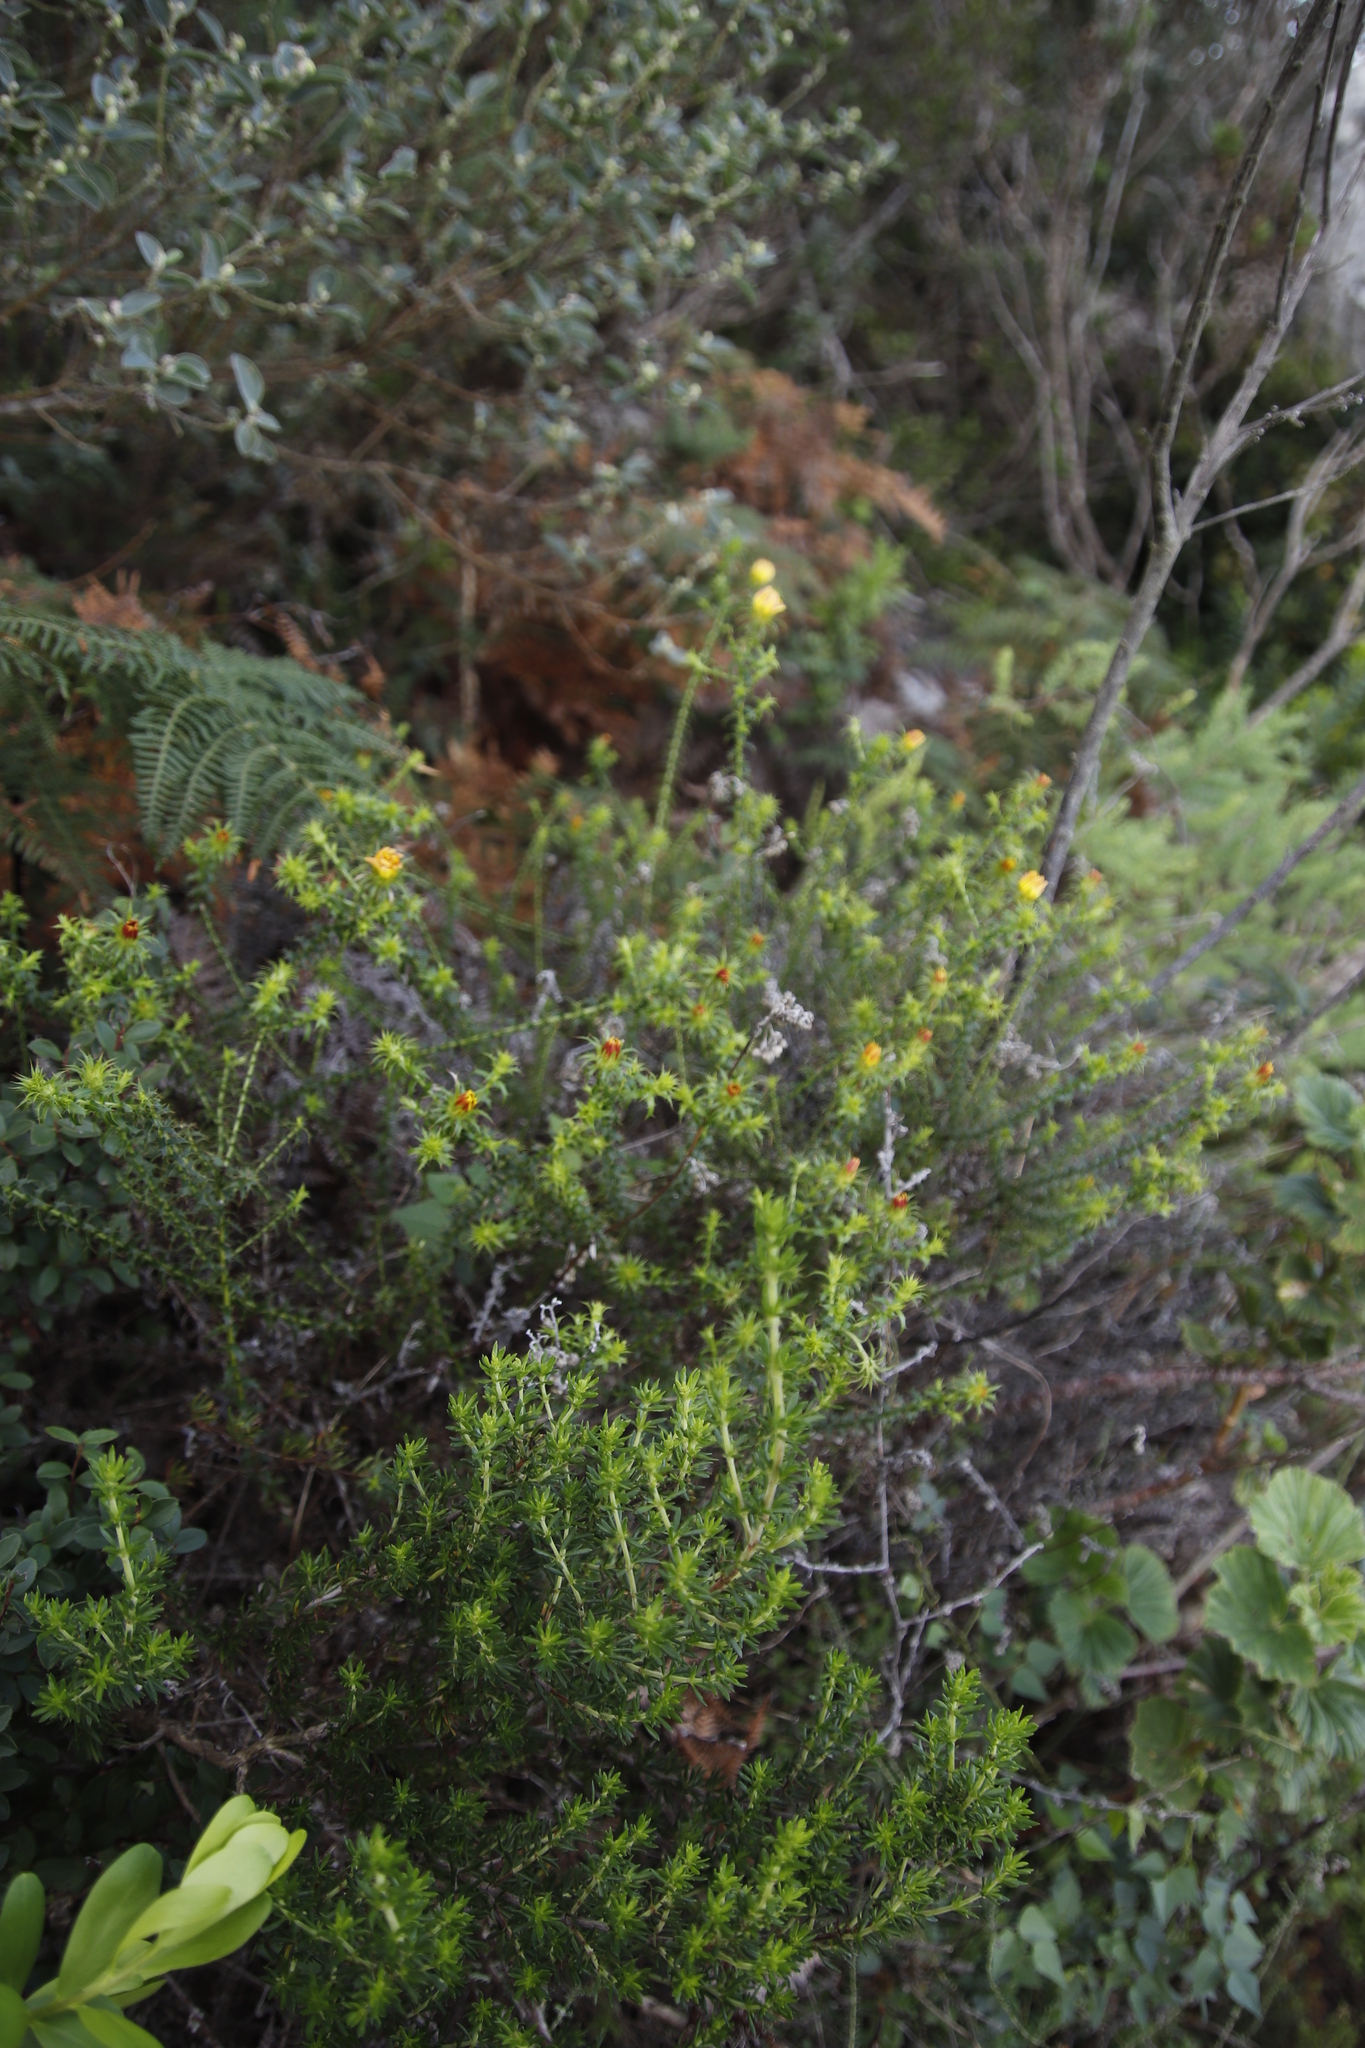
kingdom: Plantae
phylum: Tracheophyta
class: Magnoliopsida
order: Asterales
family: Asteraceae
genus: Cullumia
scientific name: Cullumia setosa
